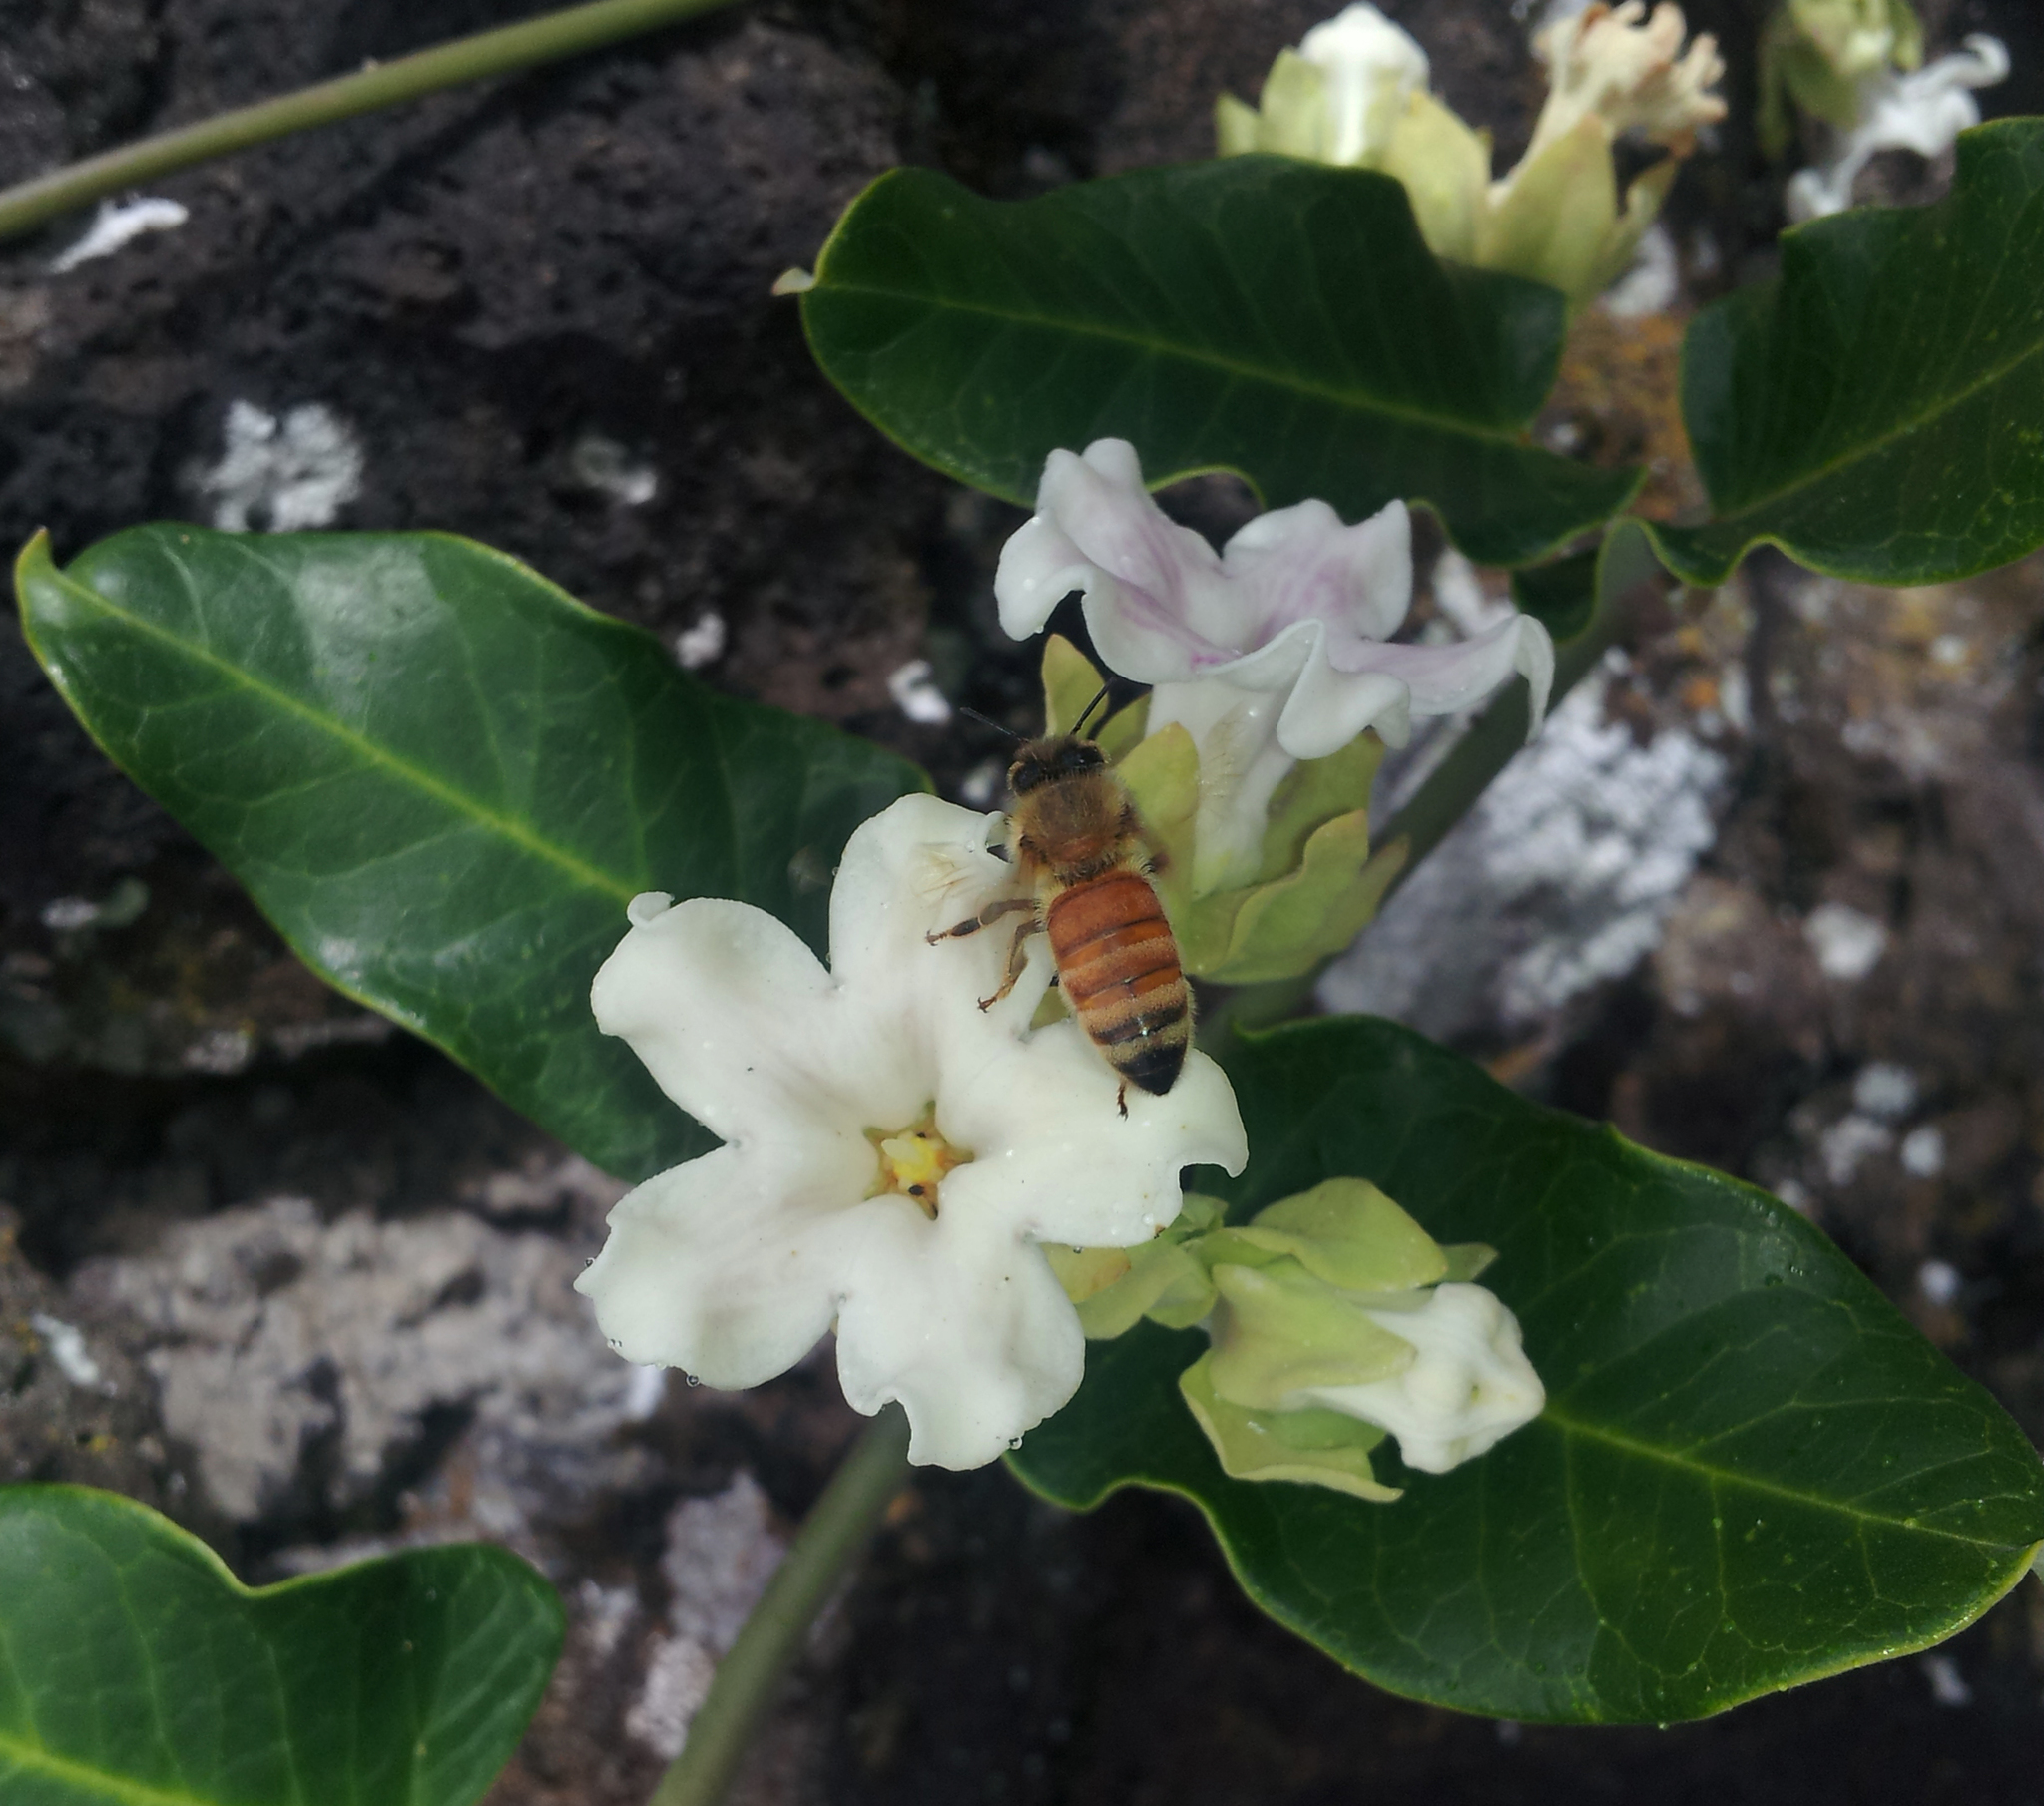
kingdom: Animalia
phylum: Arthropoda
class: Insecta
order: Hymenoptera
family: Apidae
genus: Apis
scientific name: Apis mellifera
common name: Honey bee
